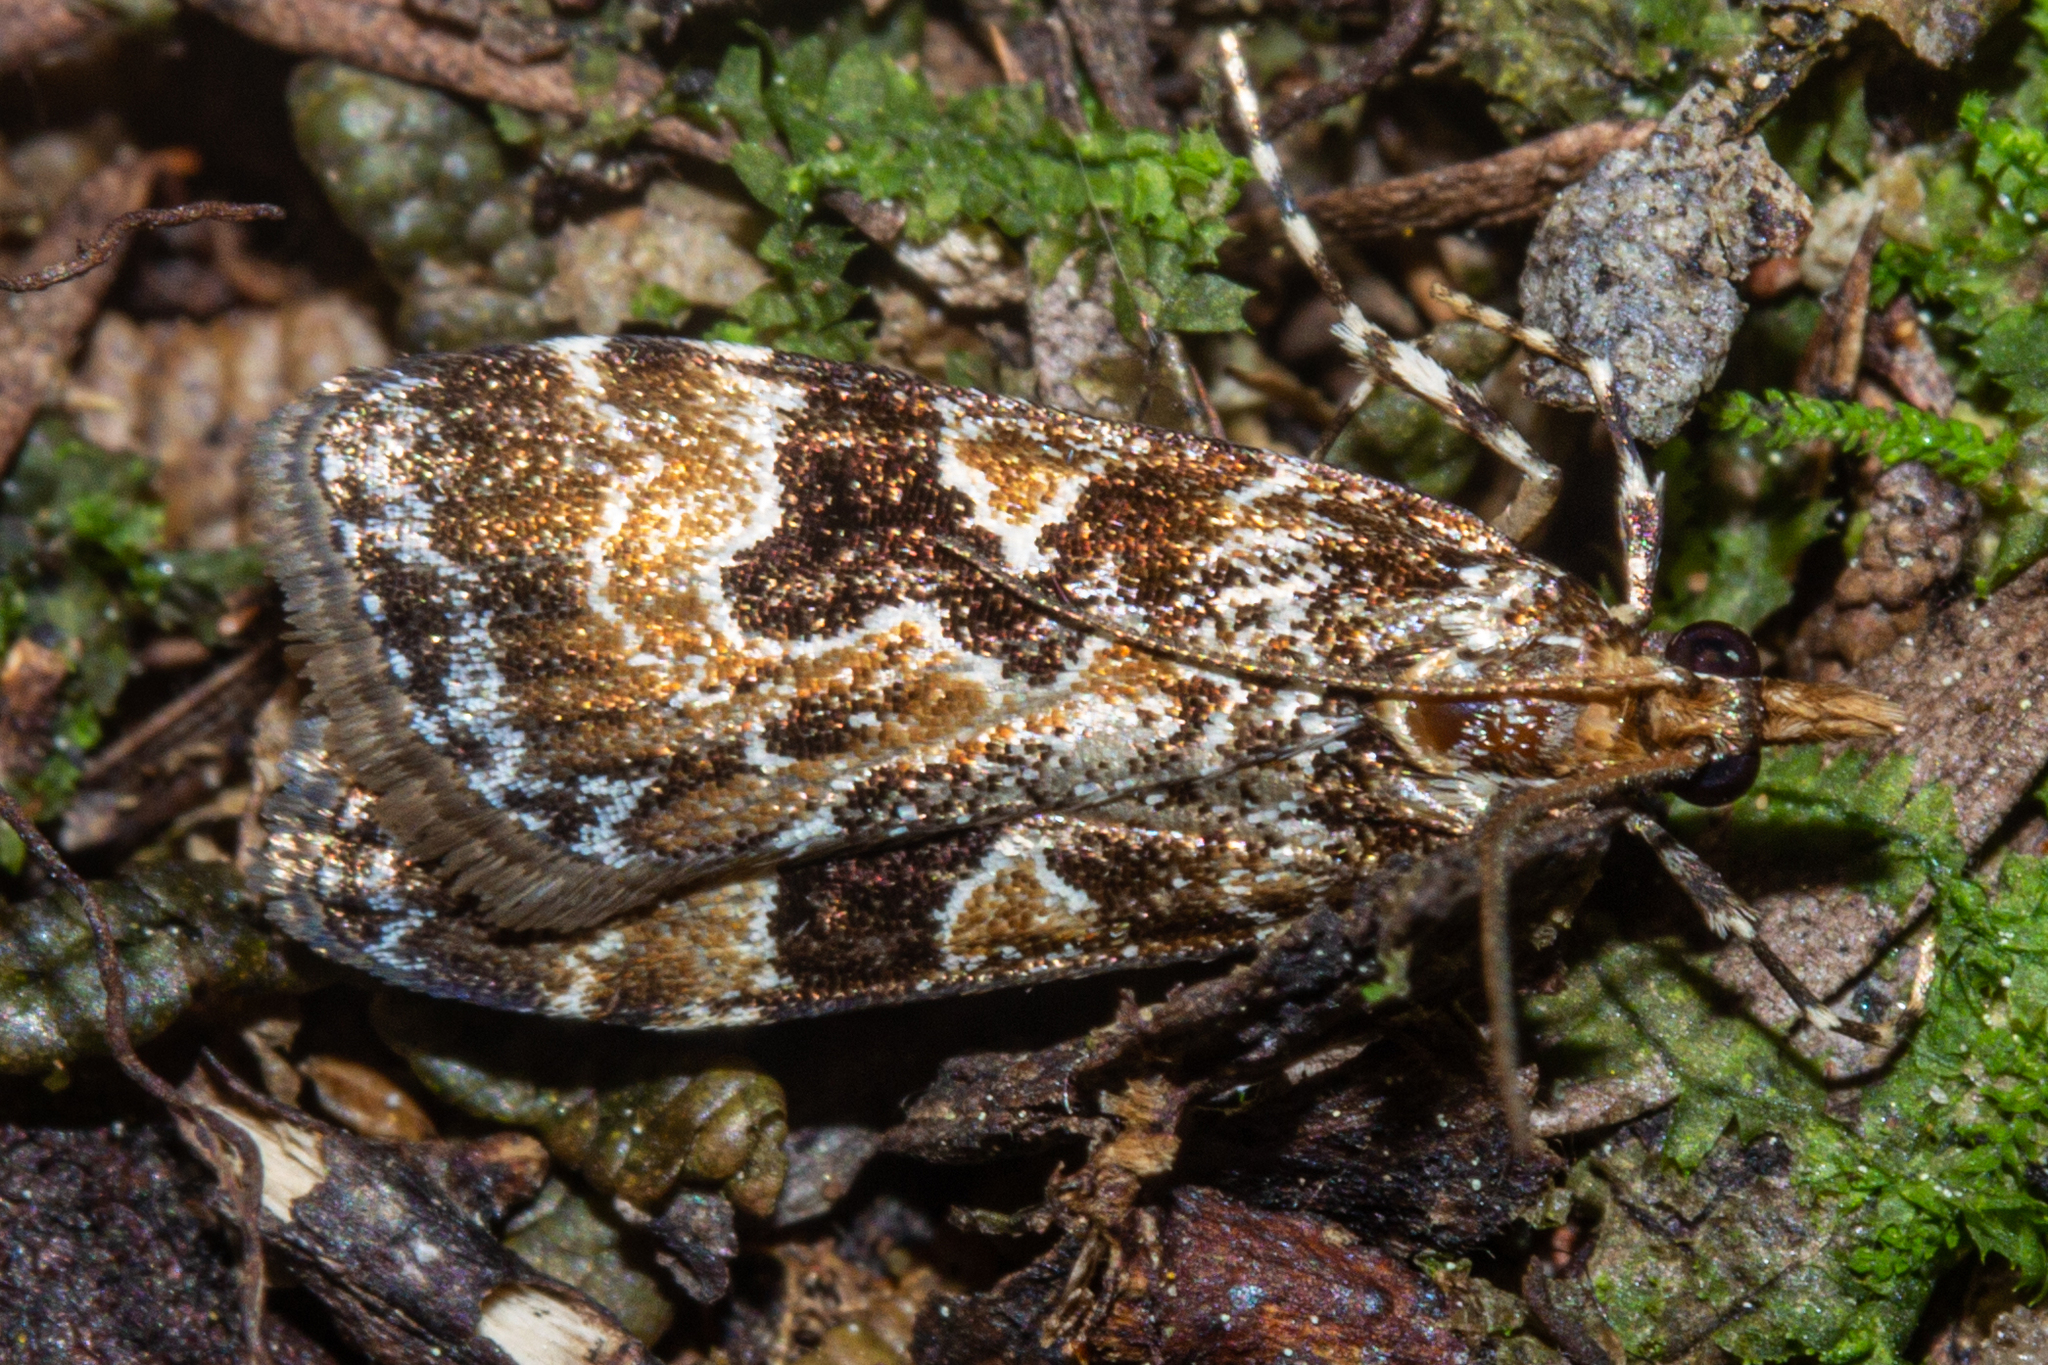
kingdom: Animalia
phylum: Arthropoda
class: Insecta
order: Lepidoptera
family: Crambidae
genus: Scoparia
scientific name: Scoparia ustimacula
